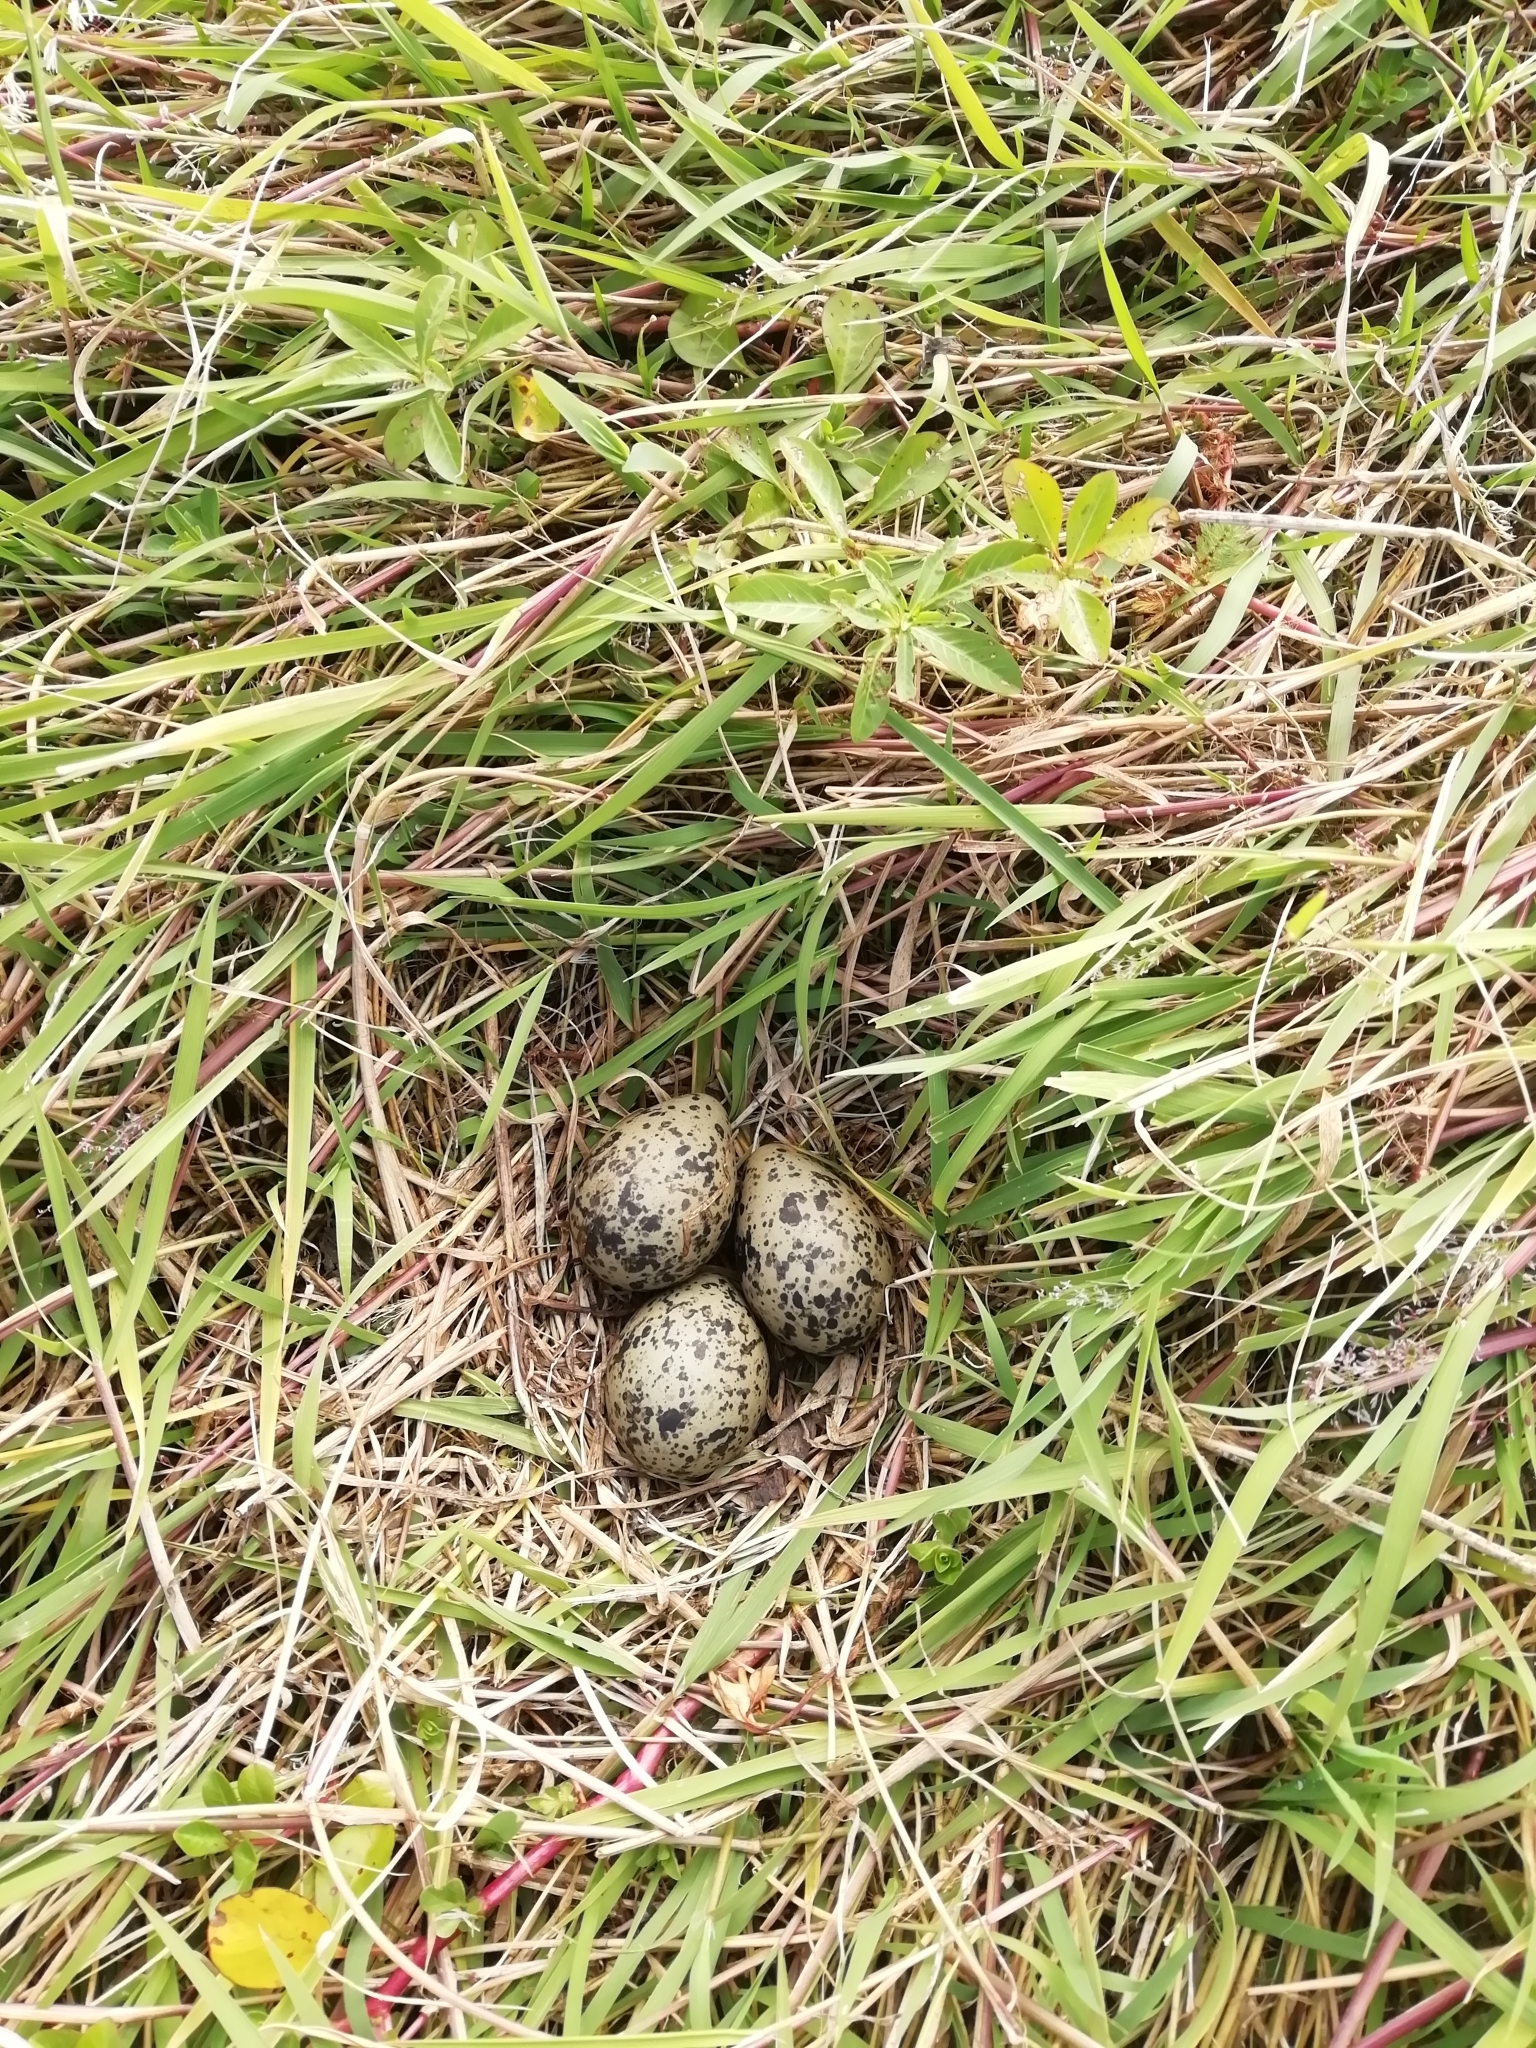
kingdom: Animalia
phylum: Chordata
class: Aves
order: Charadriiformes
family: Charadriidae
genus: Vanellus
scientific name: Vanellus chilensis
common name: Southern lapwing
